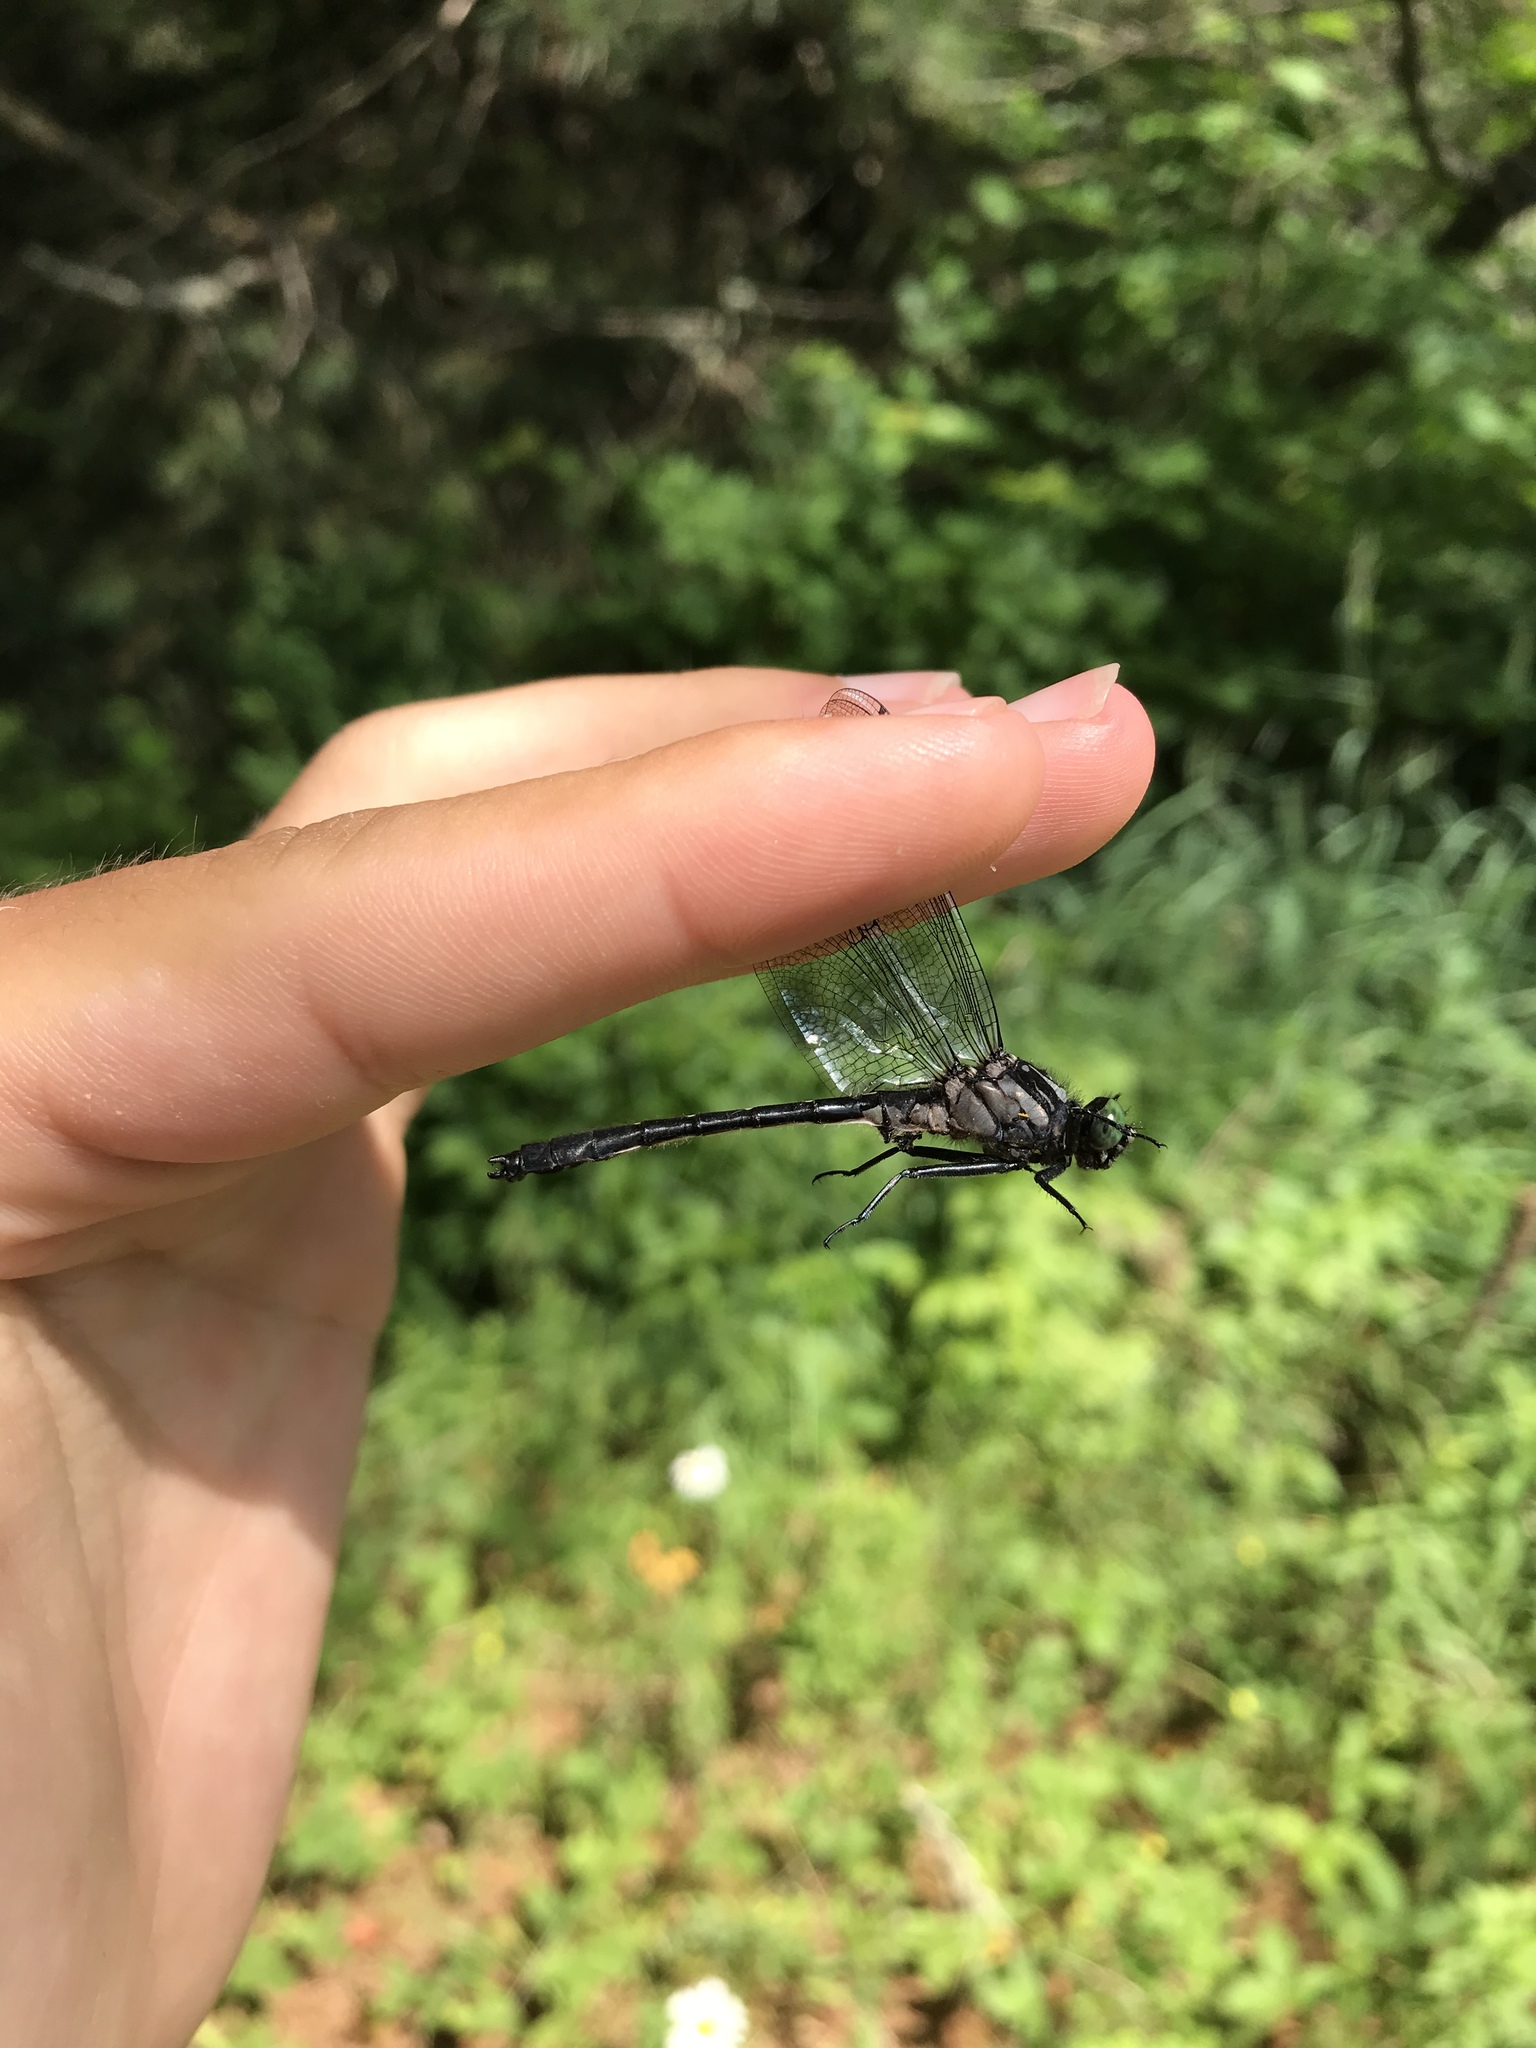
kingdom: Animalia
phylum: Arthropoda
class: Insecta
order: Odonata
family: Gomphidae
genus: Hylogomphus
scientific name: Hylogomphus adelphus
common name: Mustached clubtail
